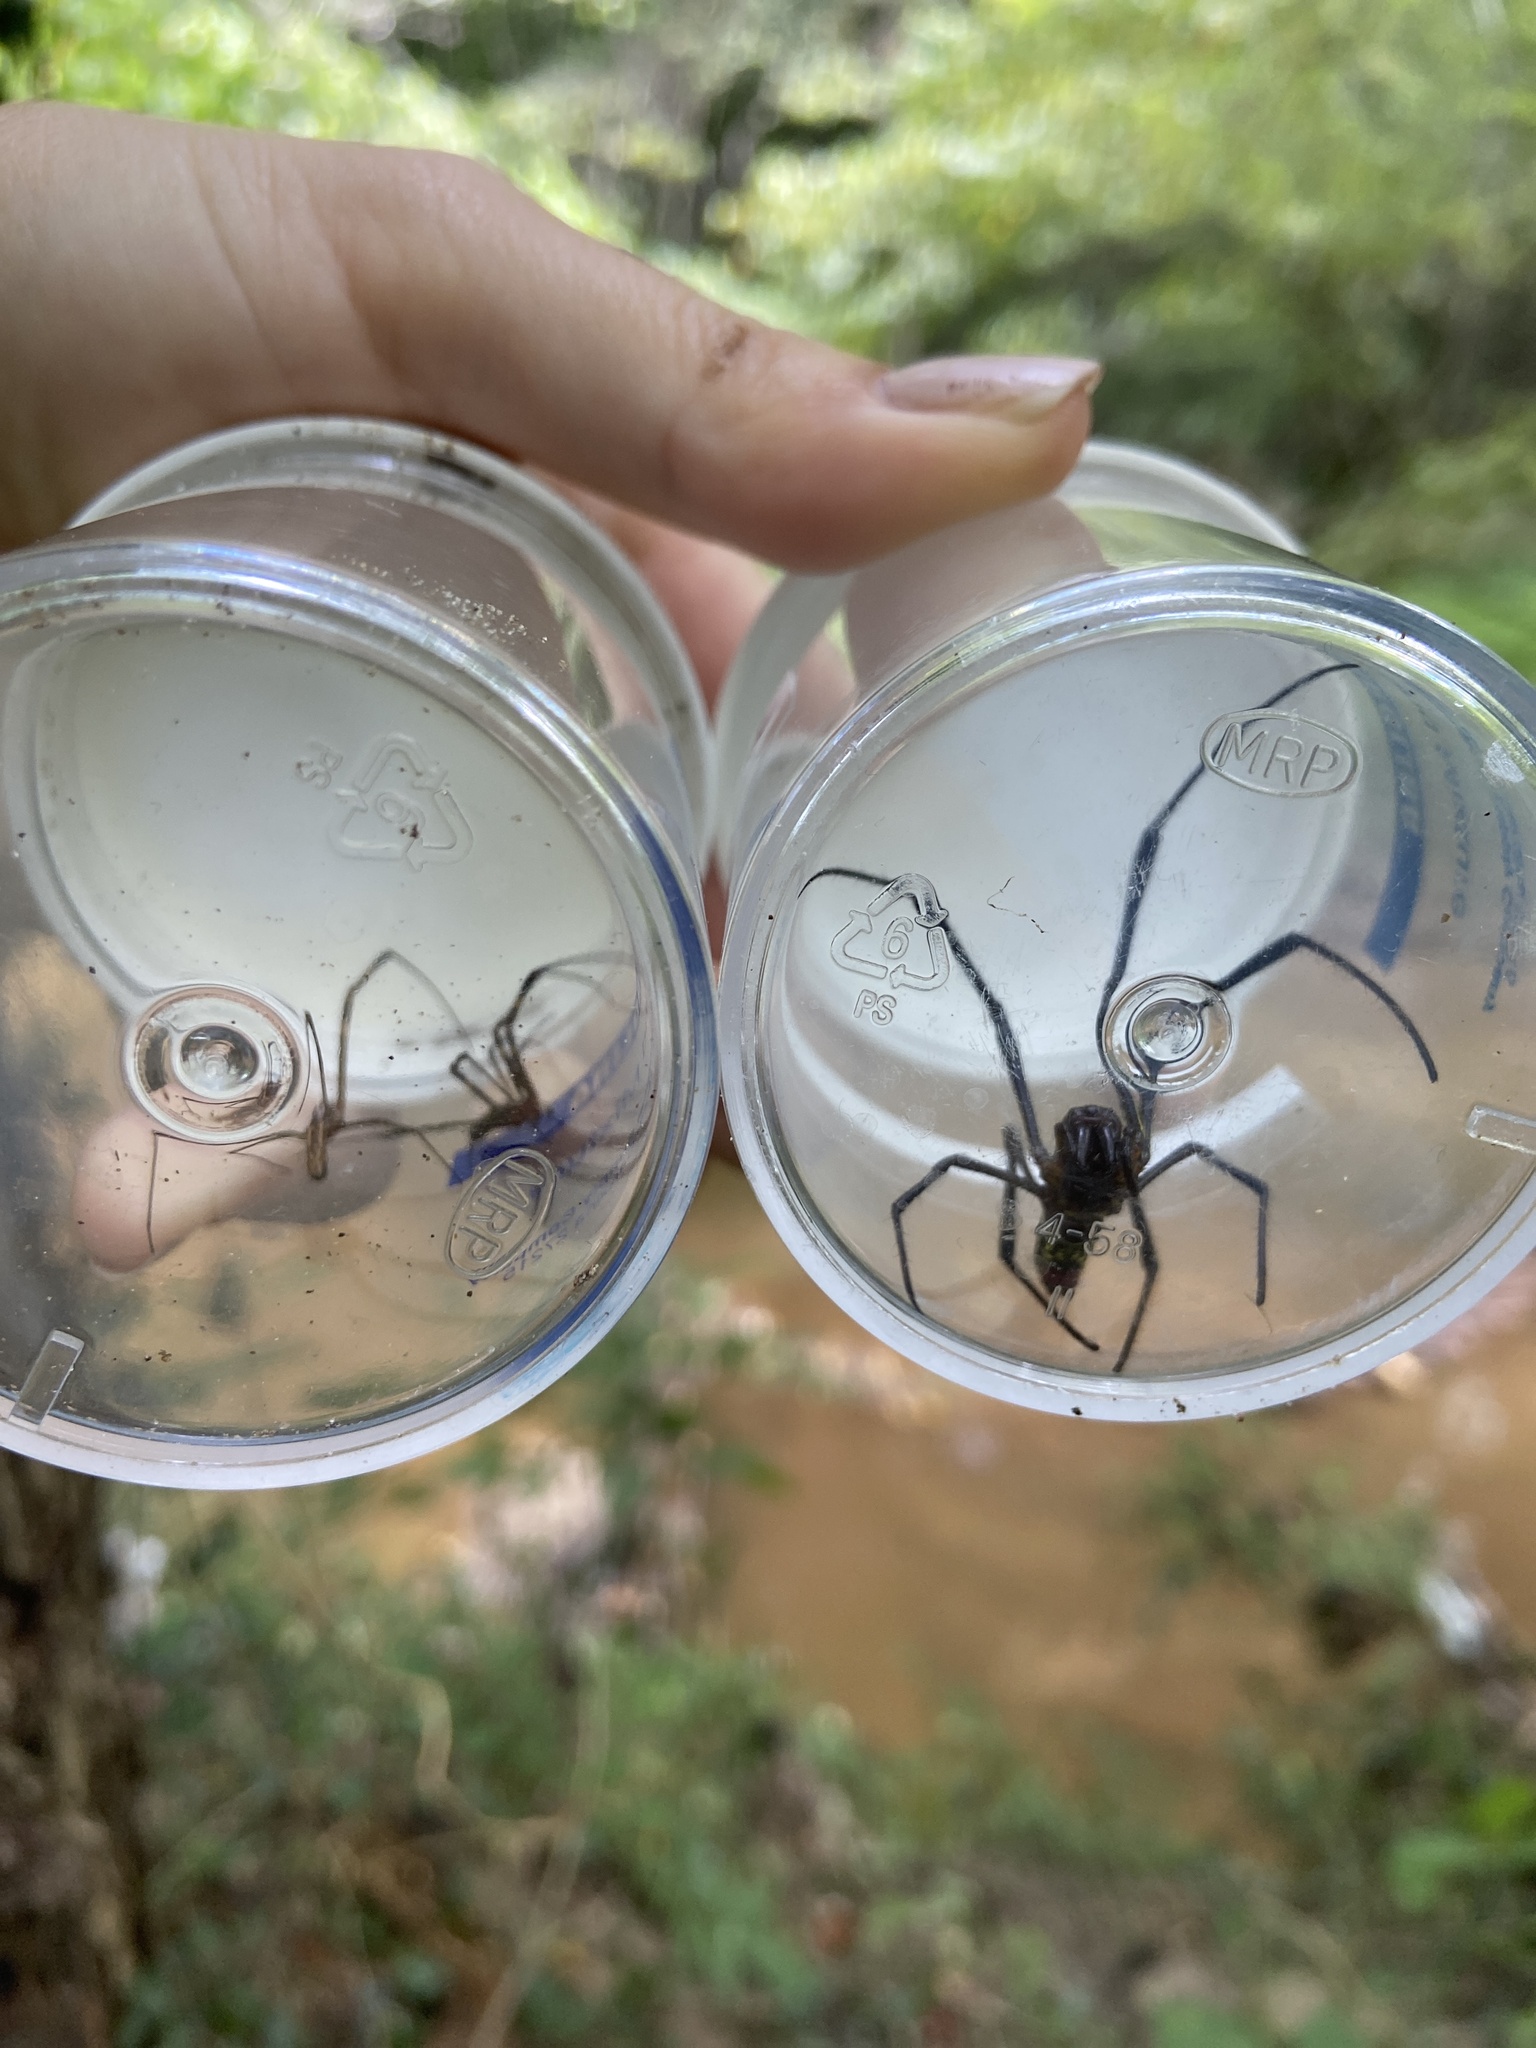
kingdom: Animalia
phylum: Arthropoda
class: Arachnida
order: Araneae
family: Araneidae
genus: Trichonephila
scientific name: Trichonephila clavata
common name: Jorō spider
